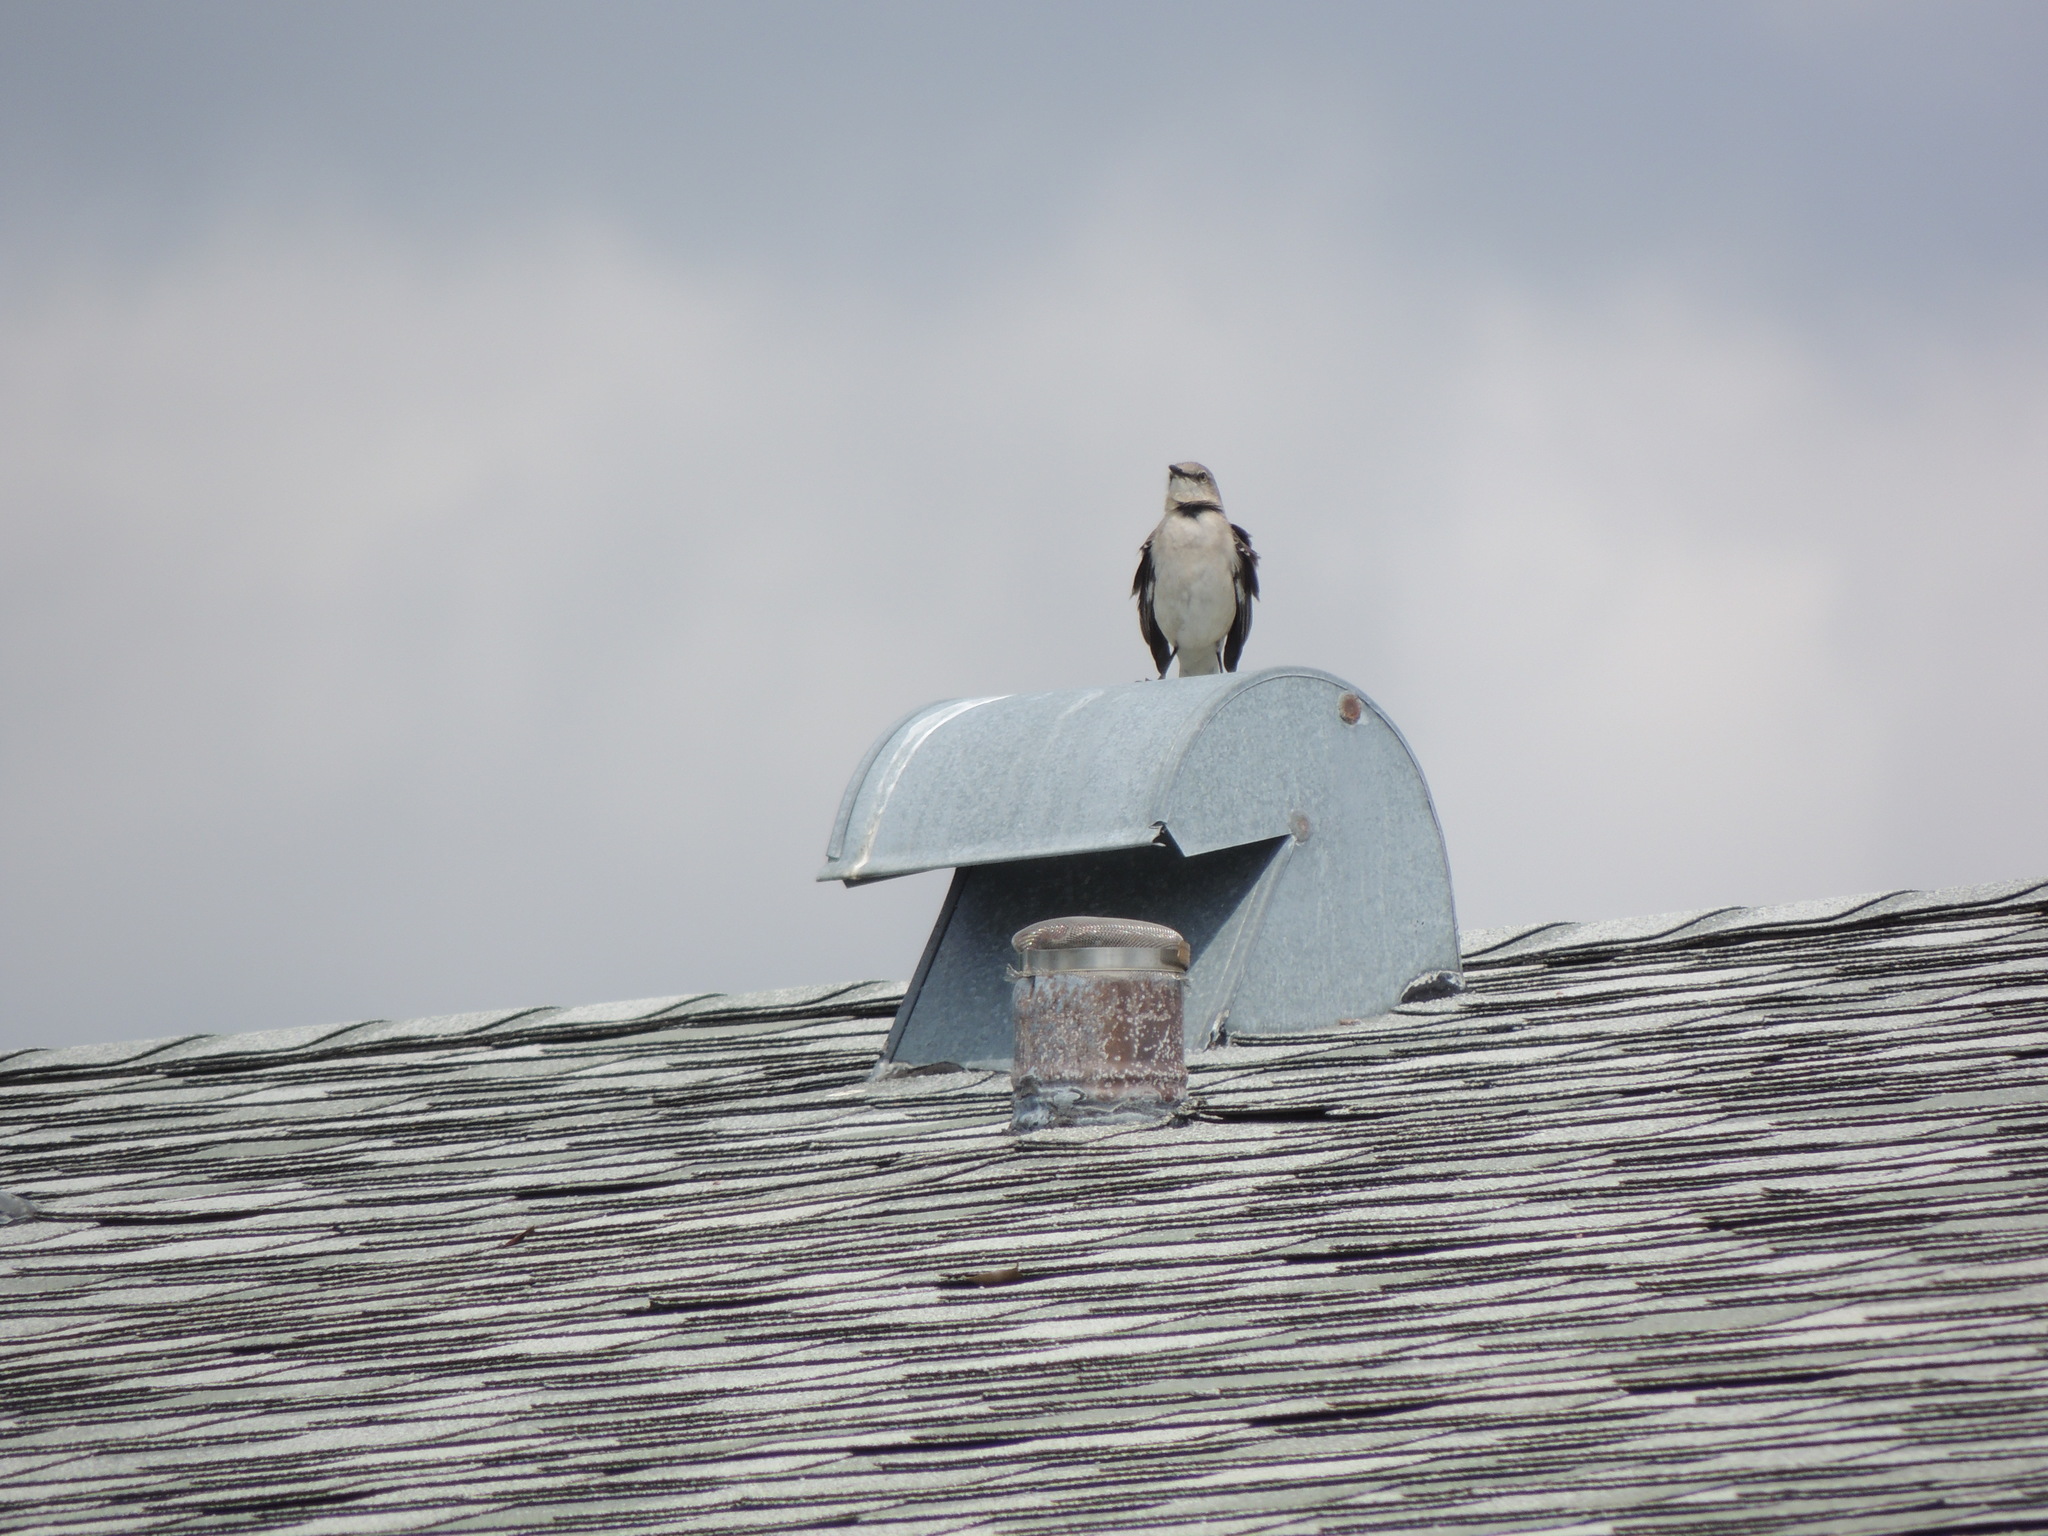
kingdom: Animalia
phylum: Chordata
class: Aves
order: Passeriformes
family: Mimidae
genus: Mimus
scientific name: Mimus polyglottos
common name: Northern mockingbird
